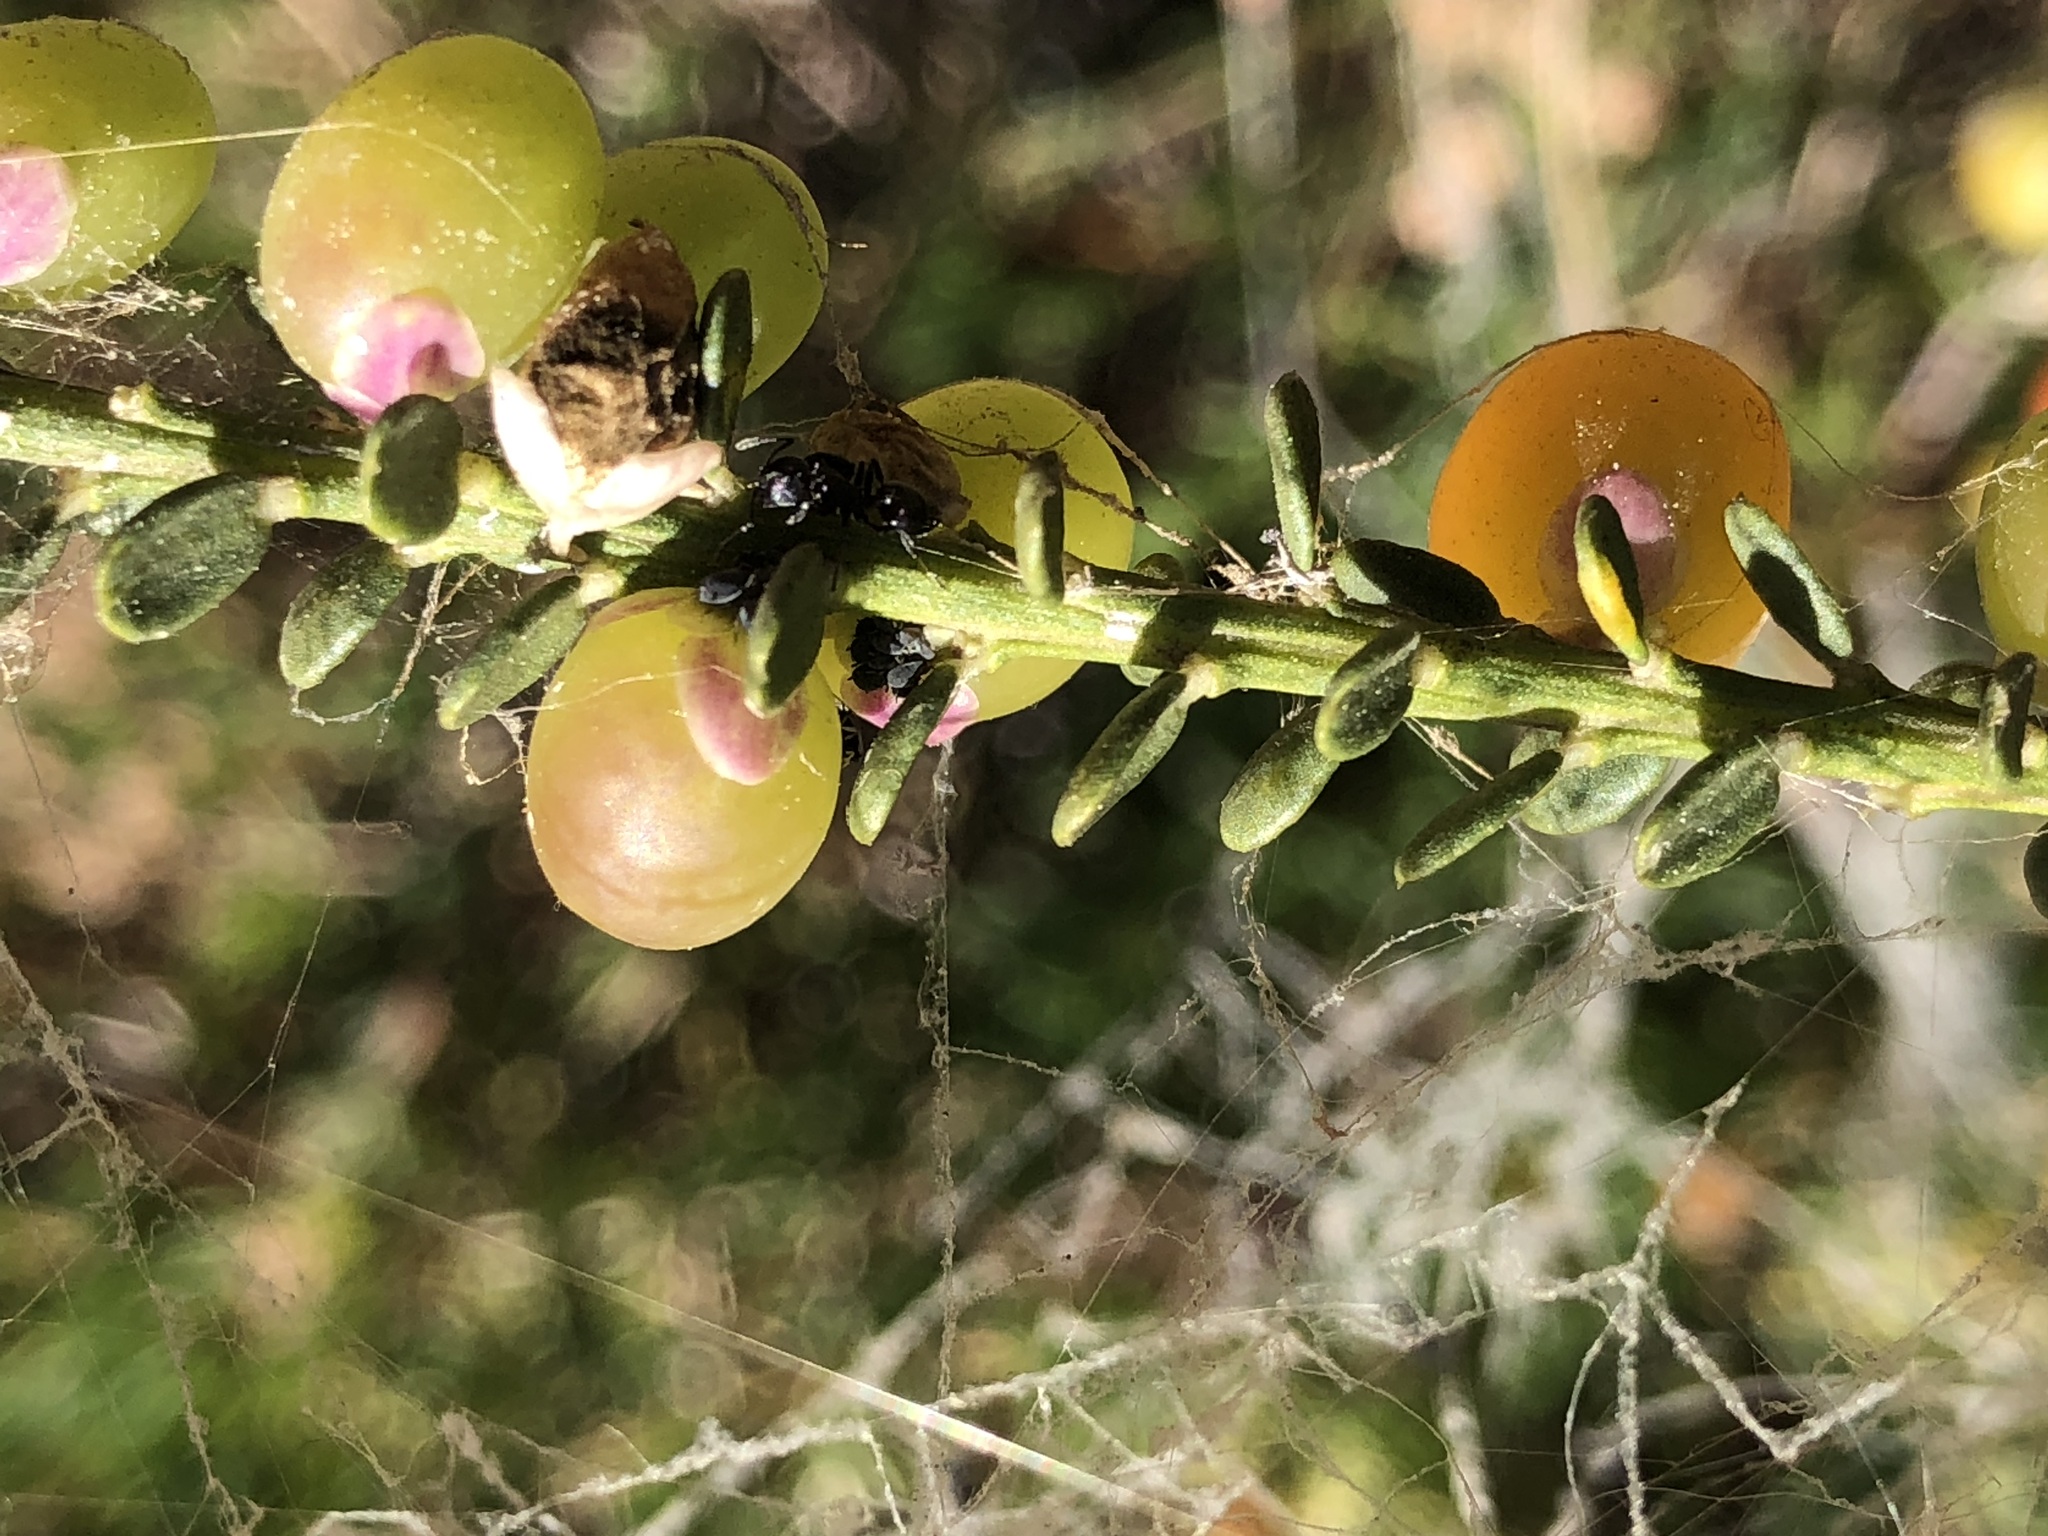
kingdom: Plantae
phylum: Tracheophyta
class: Magnoliopsida
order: Fabales
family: Polygalaceae
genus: Muraltia
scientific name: Muraltia spinosa
